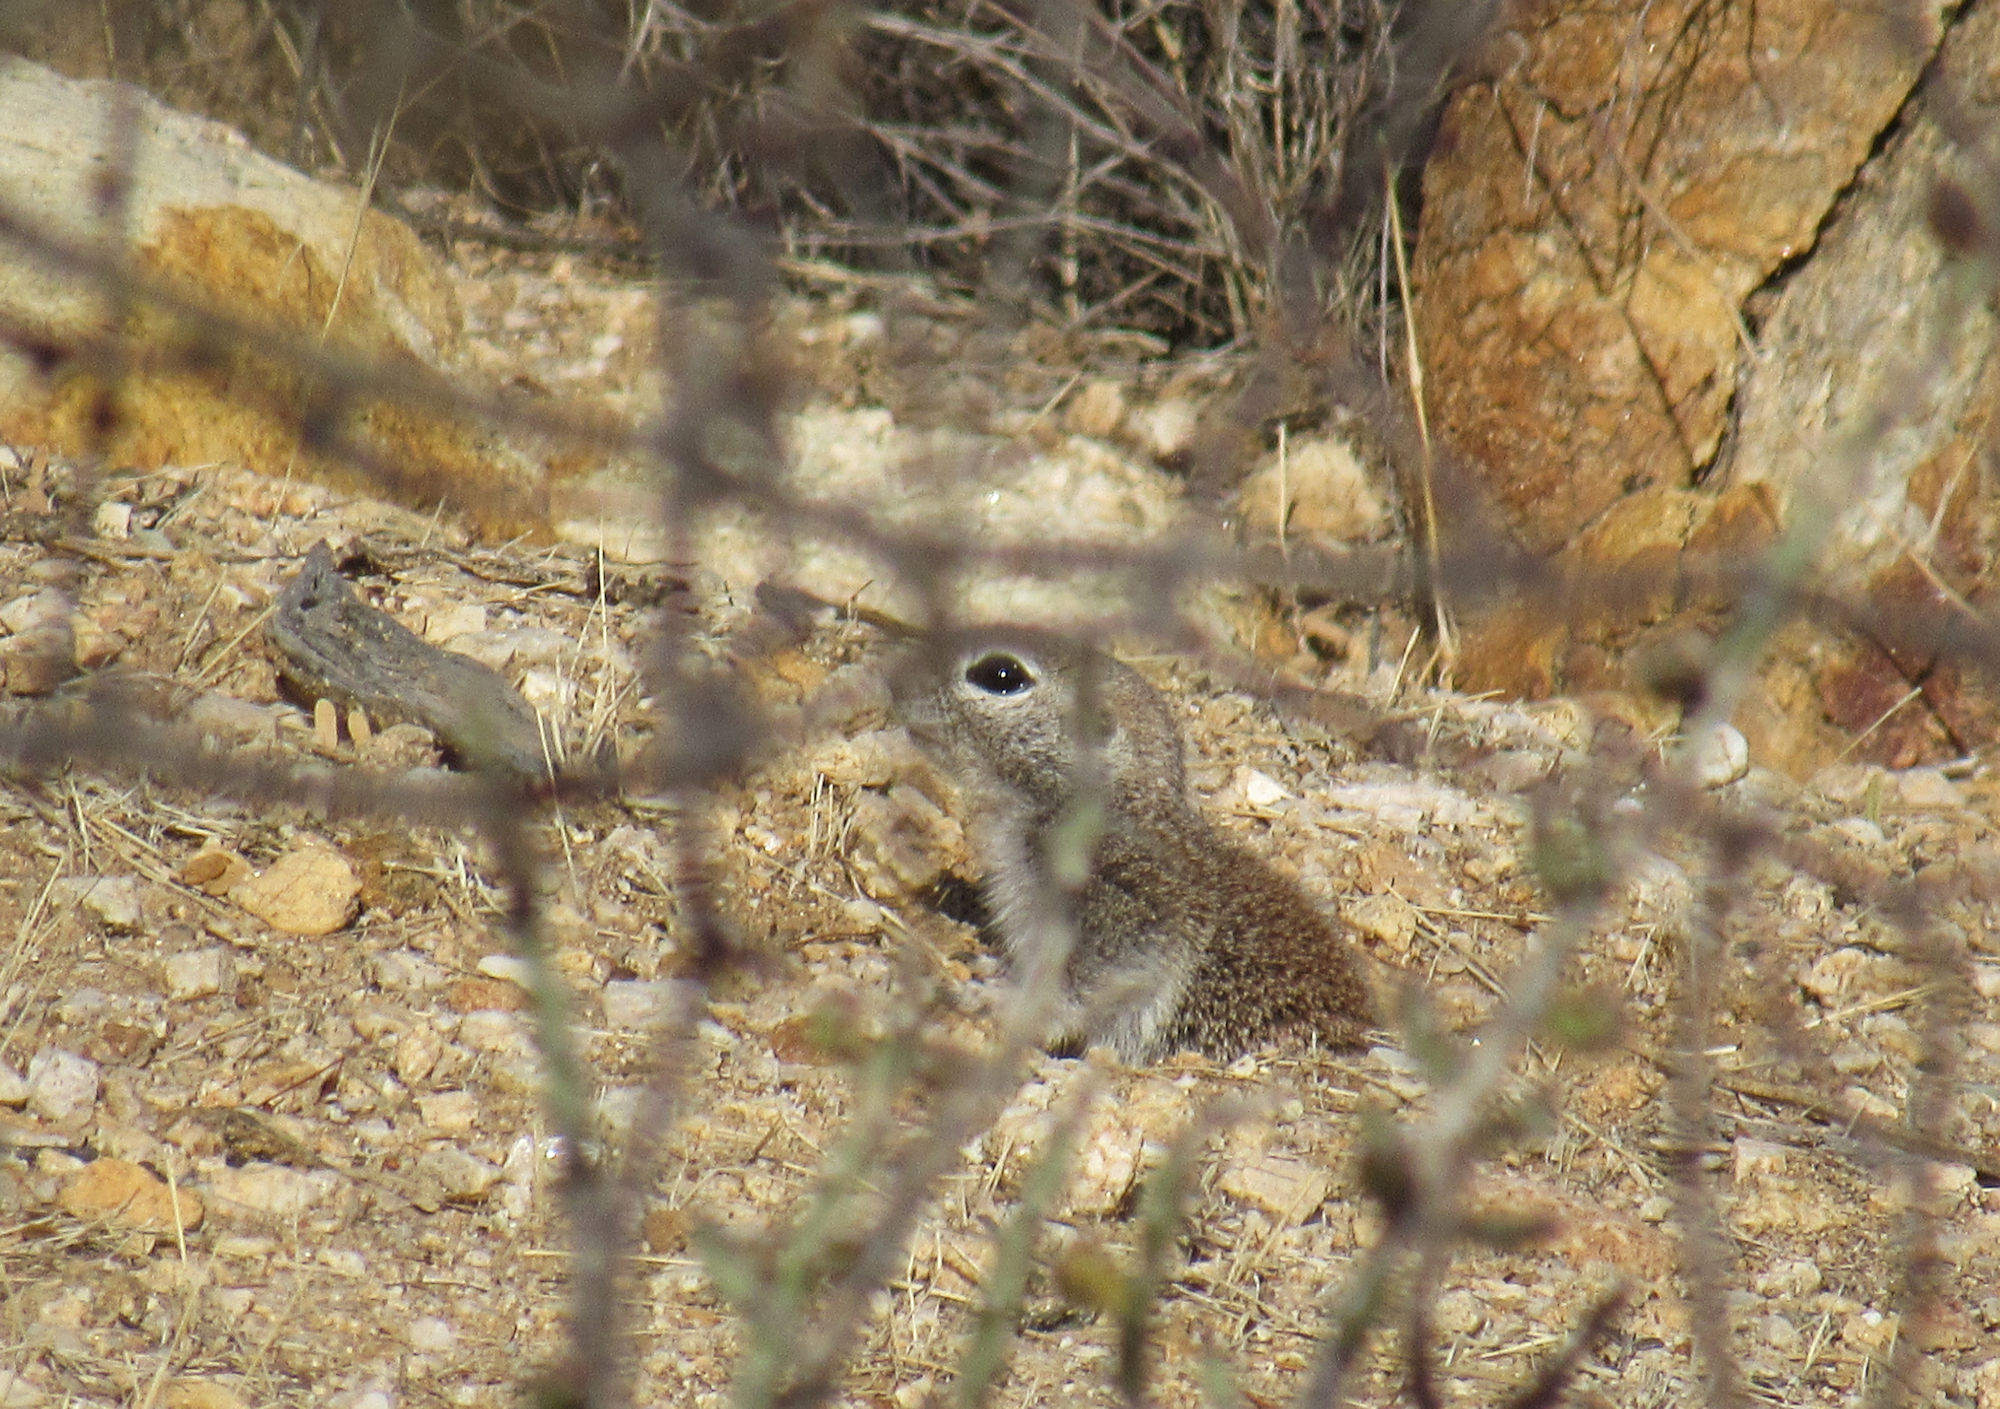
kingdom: Animalia
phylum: Chordata
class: Mammalia
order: Rodentia
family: Sciuridae
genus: Xerospermophilus
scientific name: Xerospermophilus tereticaudus
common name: Round-tailed ground squirrel
